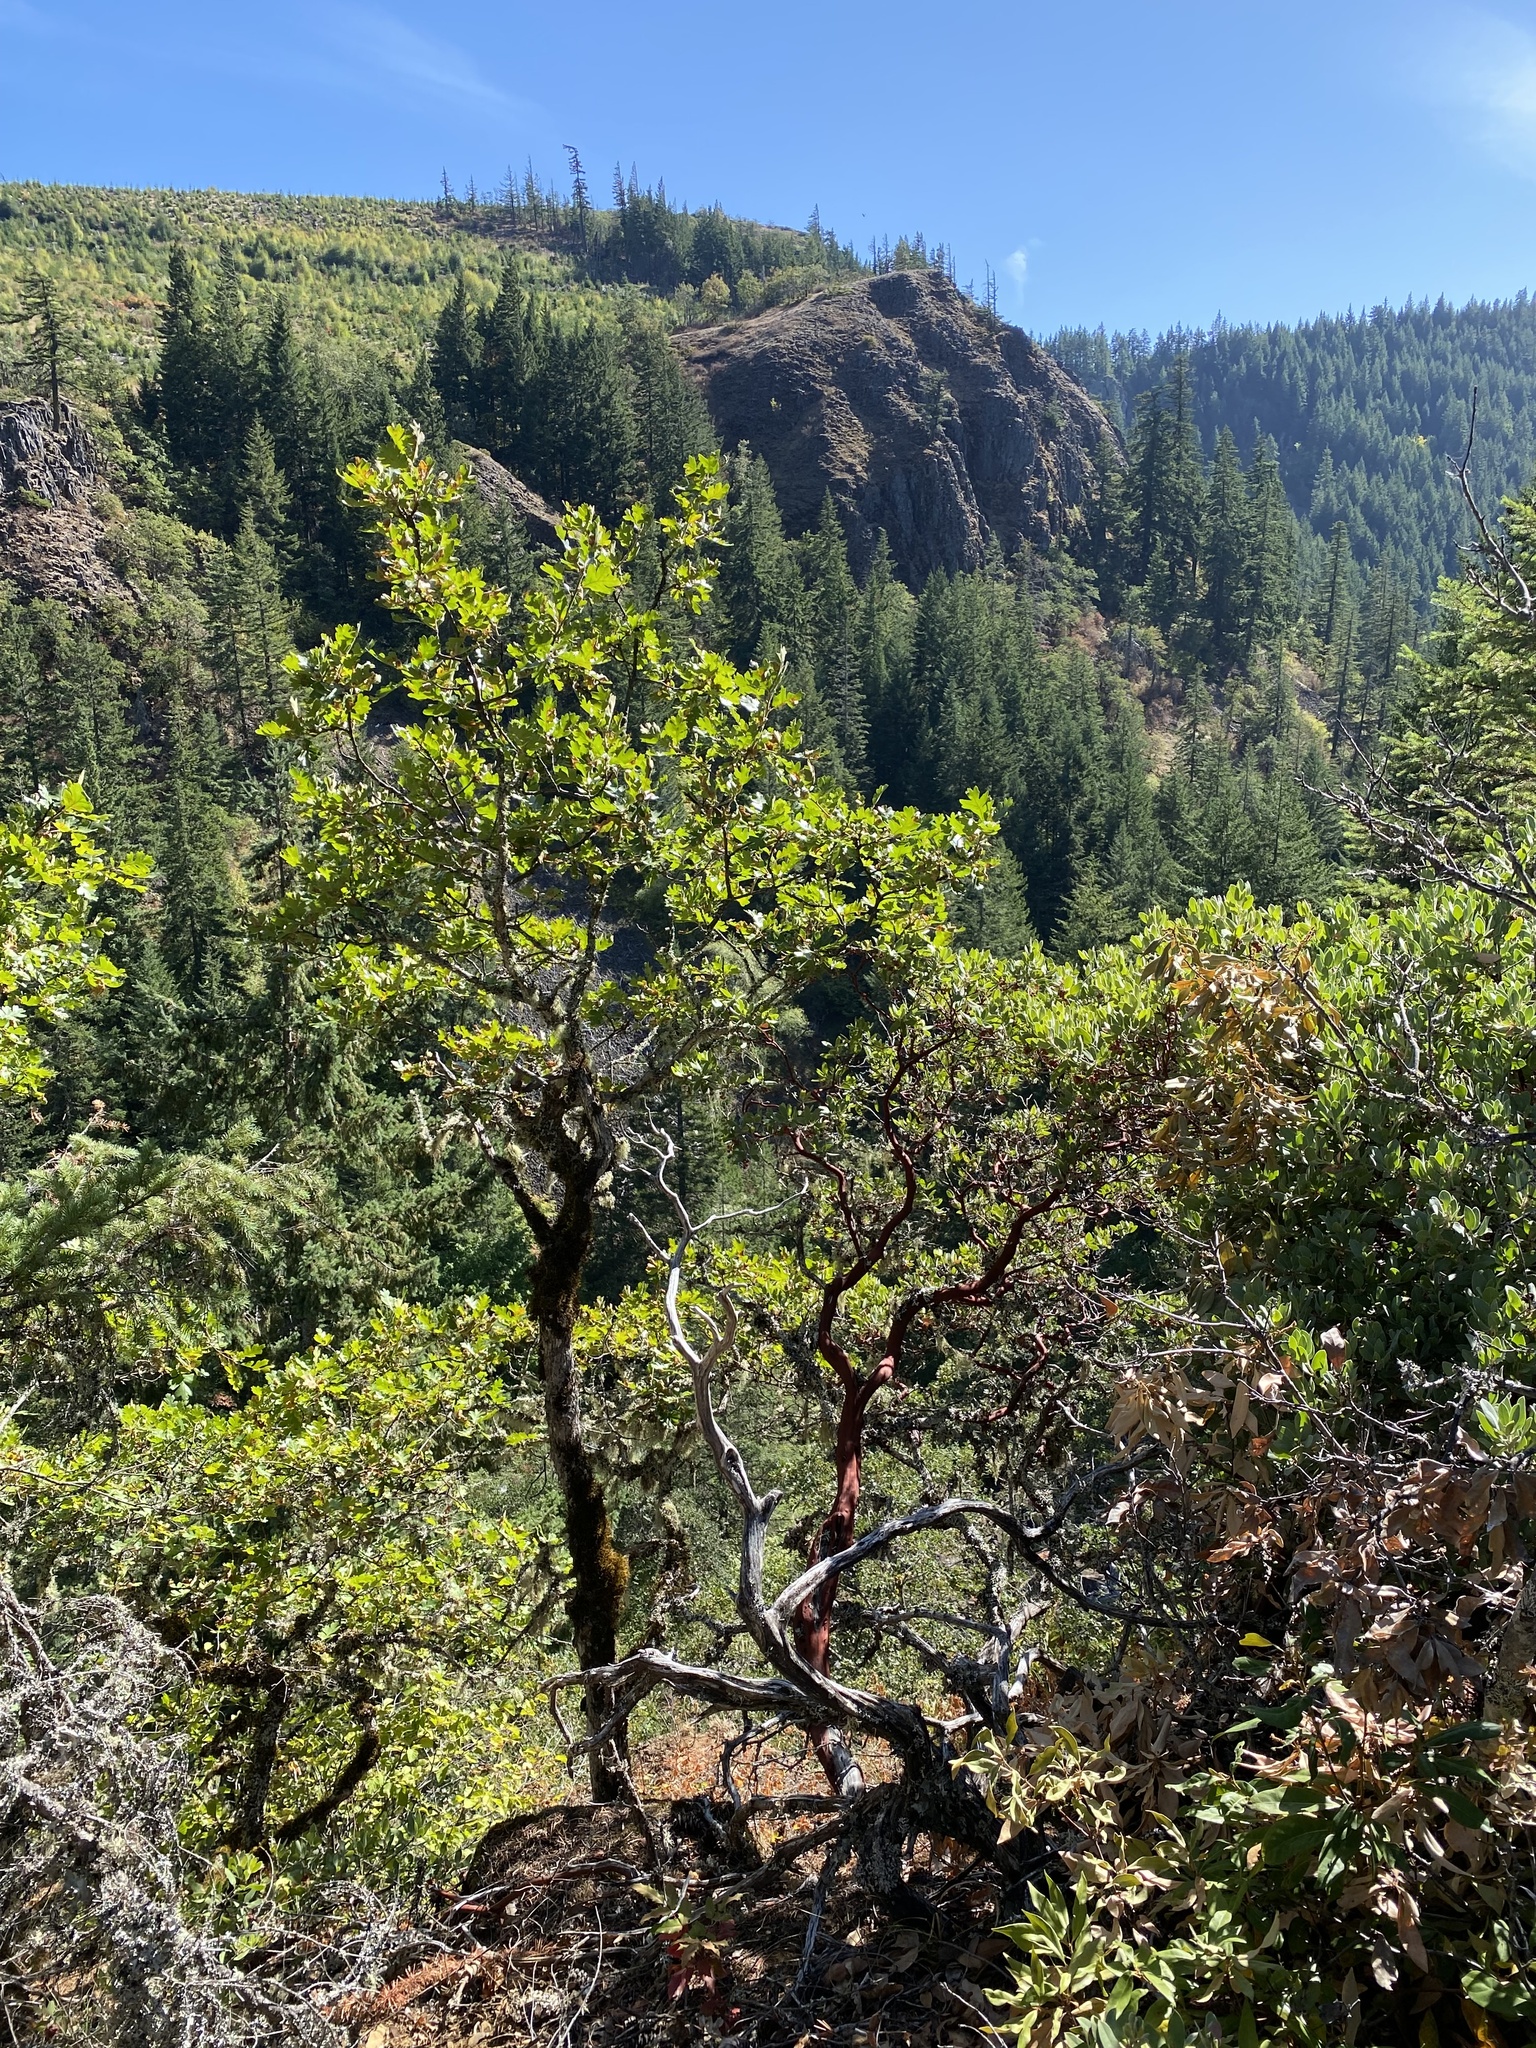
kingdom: Plantae
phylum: Tracheophyta
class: Magnoliopsida
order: Fagales
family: Fagaceae
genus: Quercus
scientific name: Quercus garryana
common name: Garry oak
